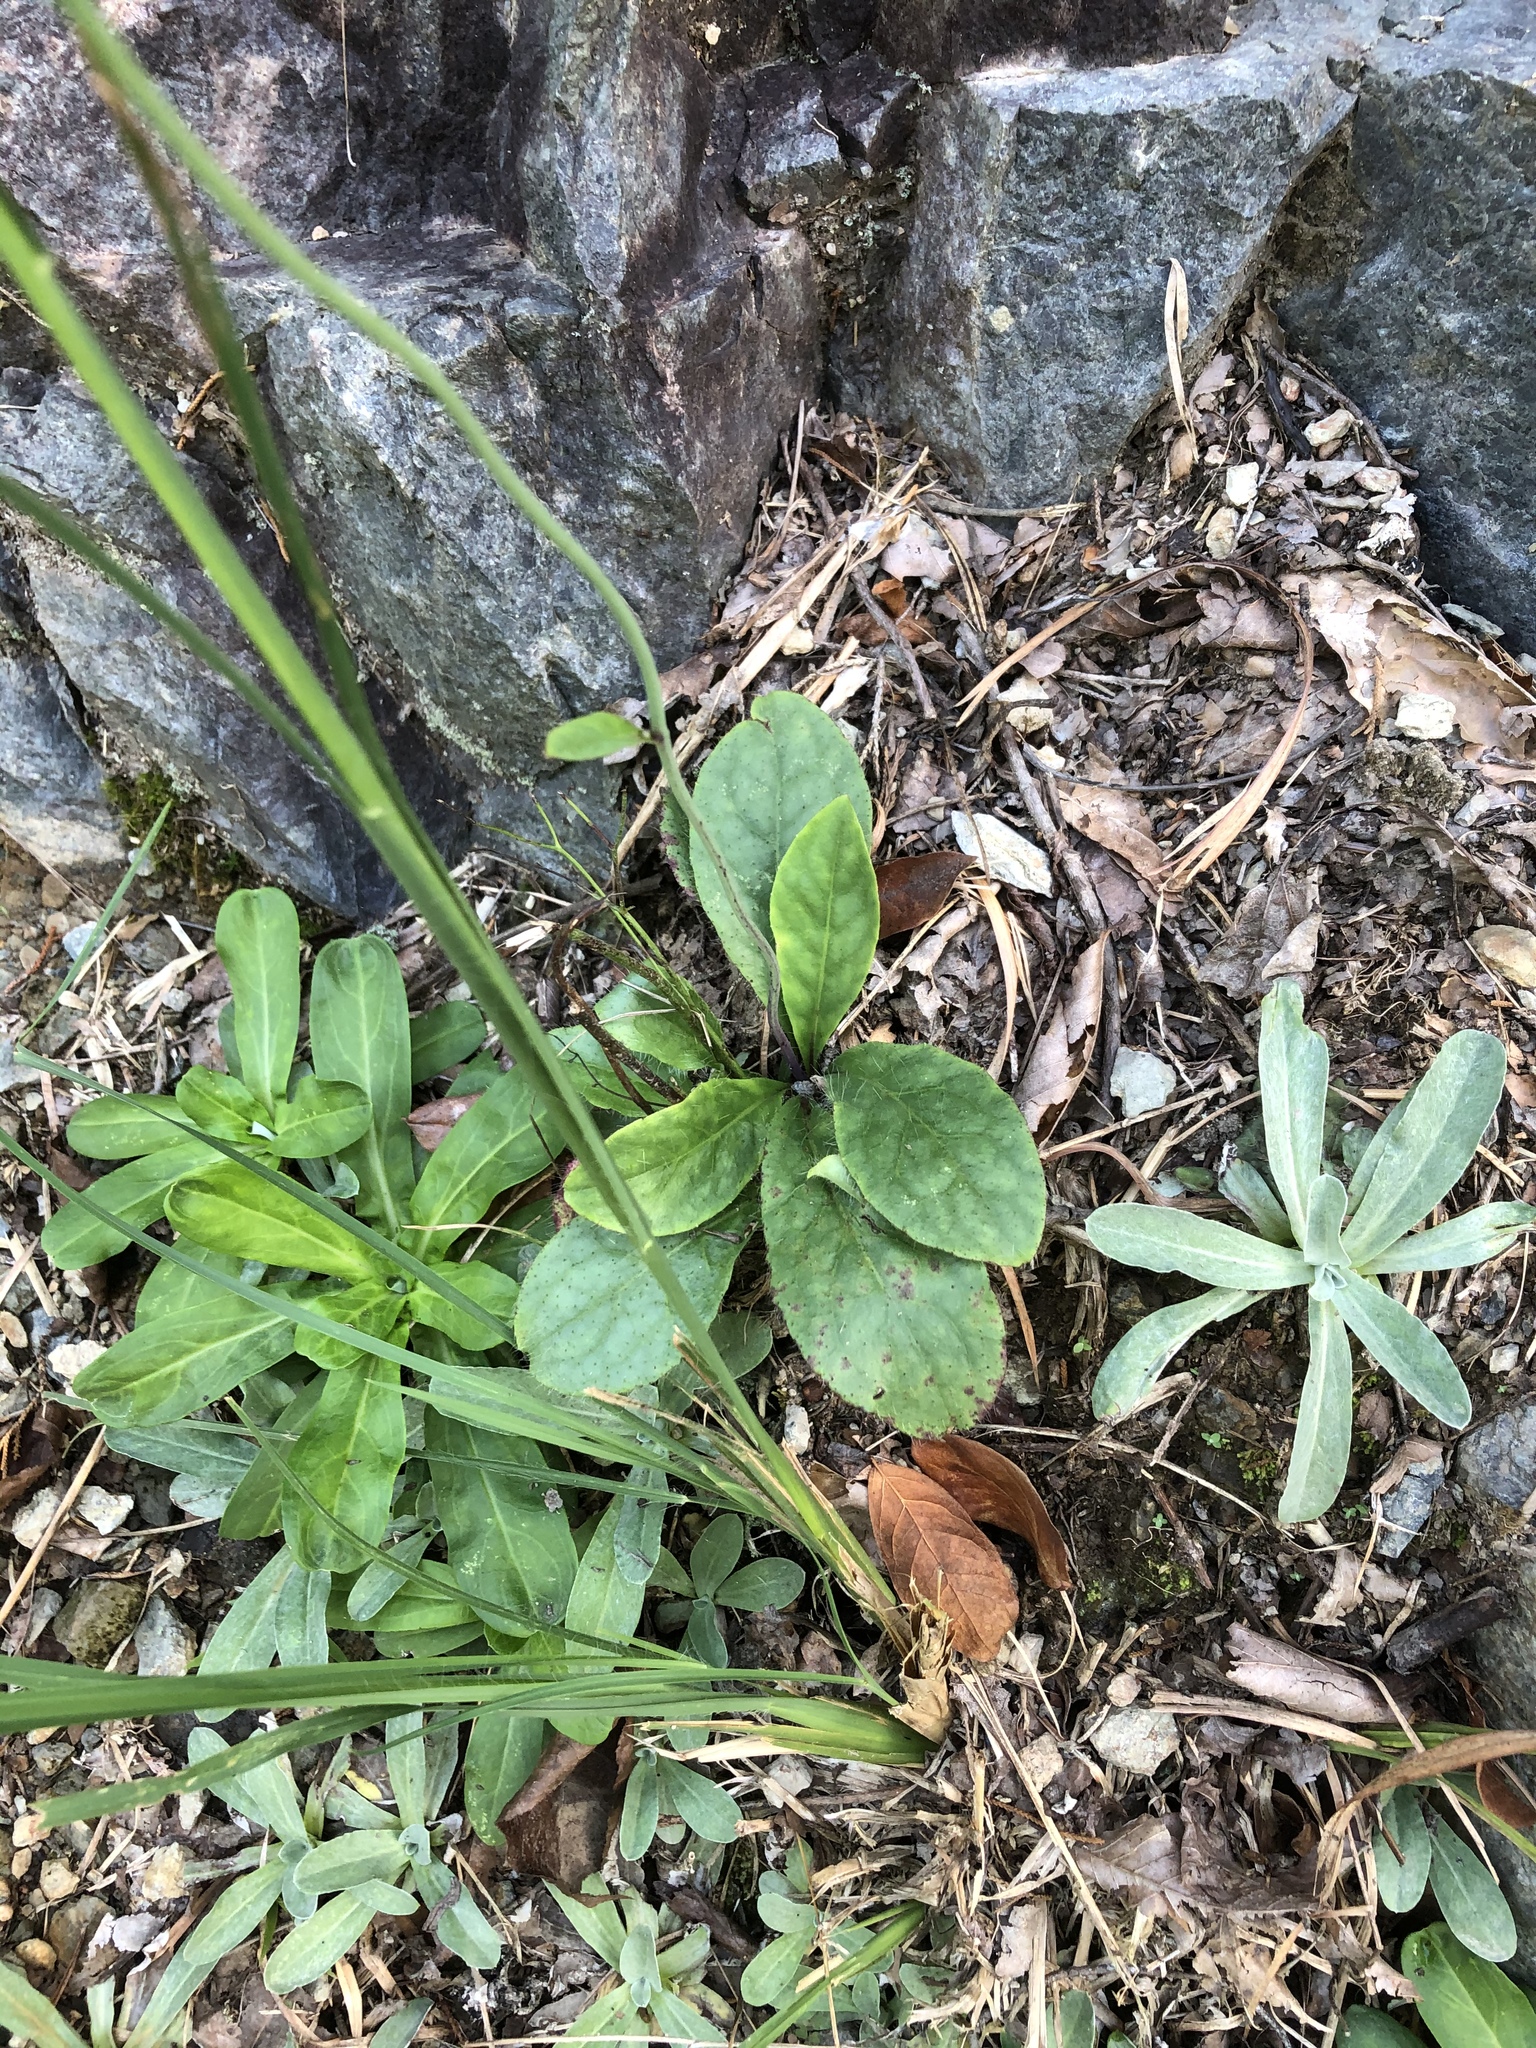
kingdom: Plantae
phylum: Tracheophyta
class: Magnoliopsida
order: Asterales
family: Asteraceae
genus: Hieracium
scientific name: Hieracium venosum
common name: Rattlesnake hawkweed
